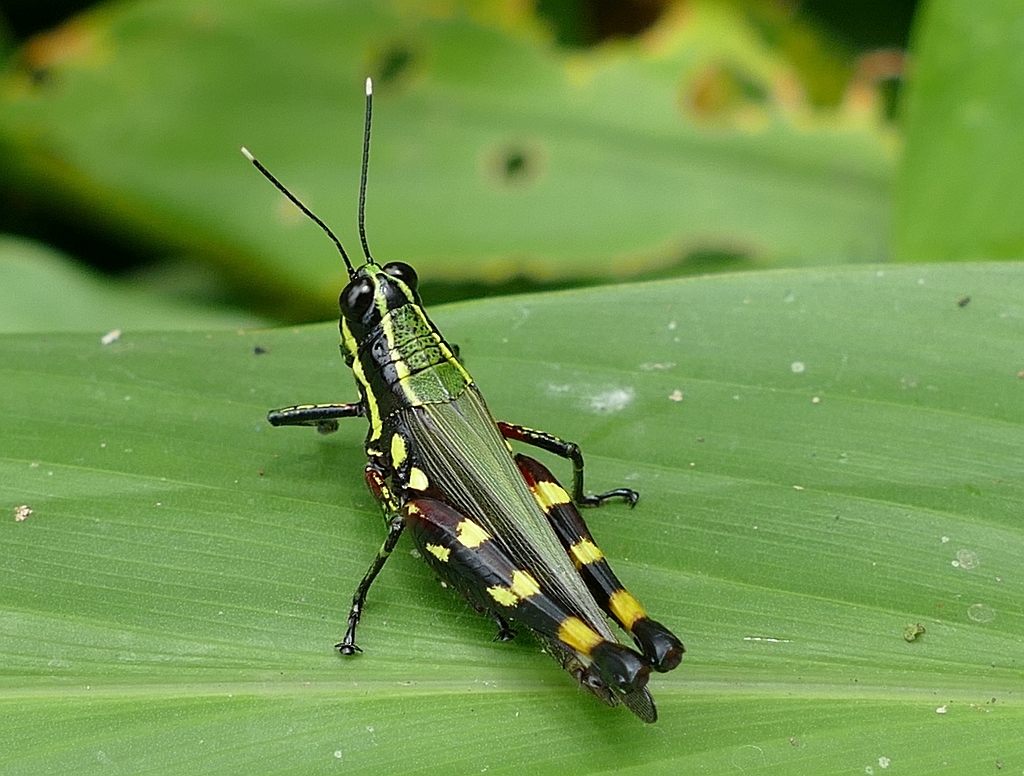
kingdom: Animalia
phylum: Arthropoda
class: Insecta
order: Orthoptera
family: Acrididae
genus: Tetrataenia
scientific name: Tetrataenia surinama
